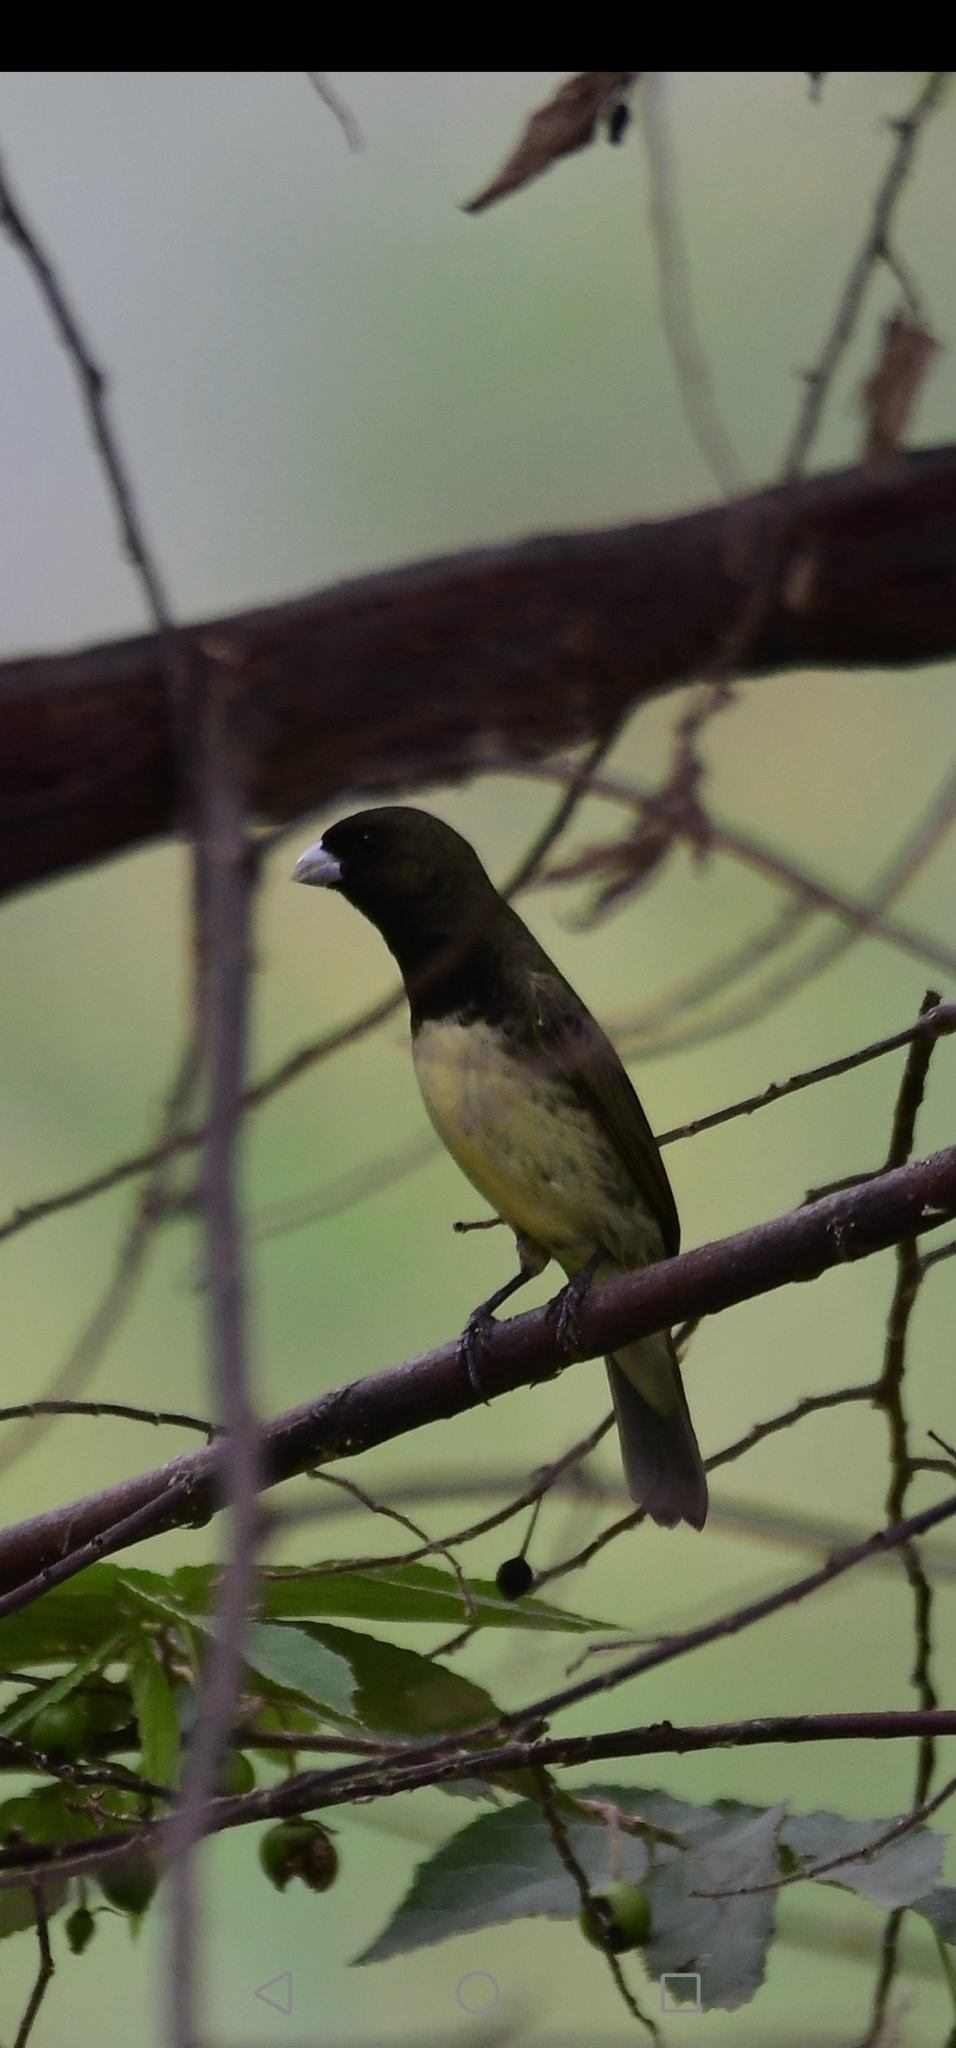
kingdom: Animalia
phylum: Chordata
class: Aves
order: Passeriformes
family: Thraupidae
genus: Sporophila
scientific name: Sporophila nigricollis
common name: Yellow-bellied seedeater
